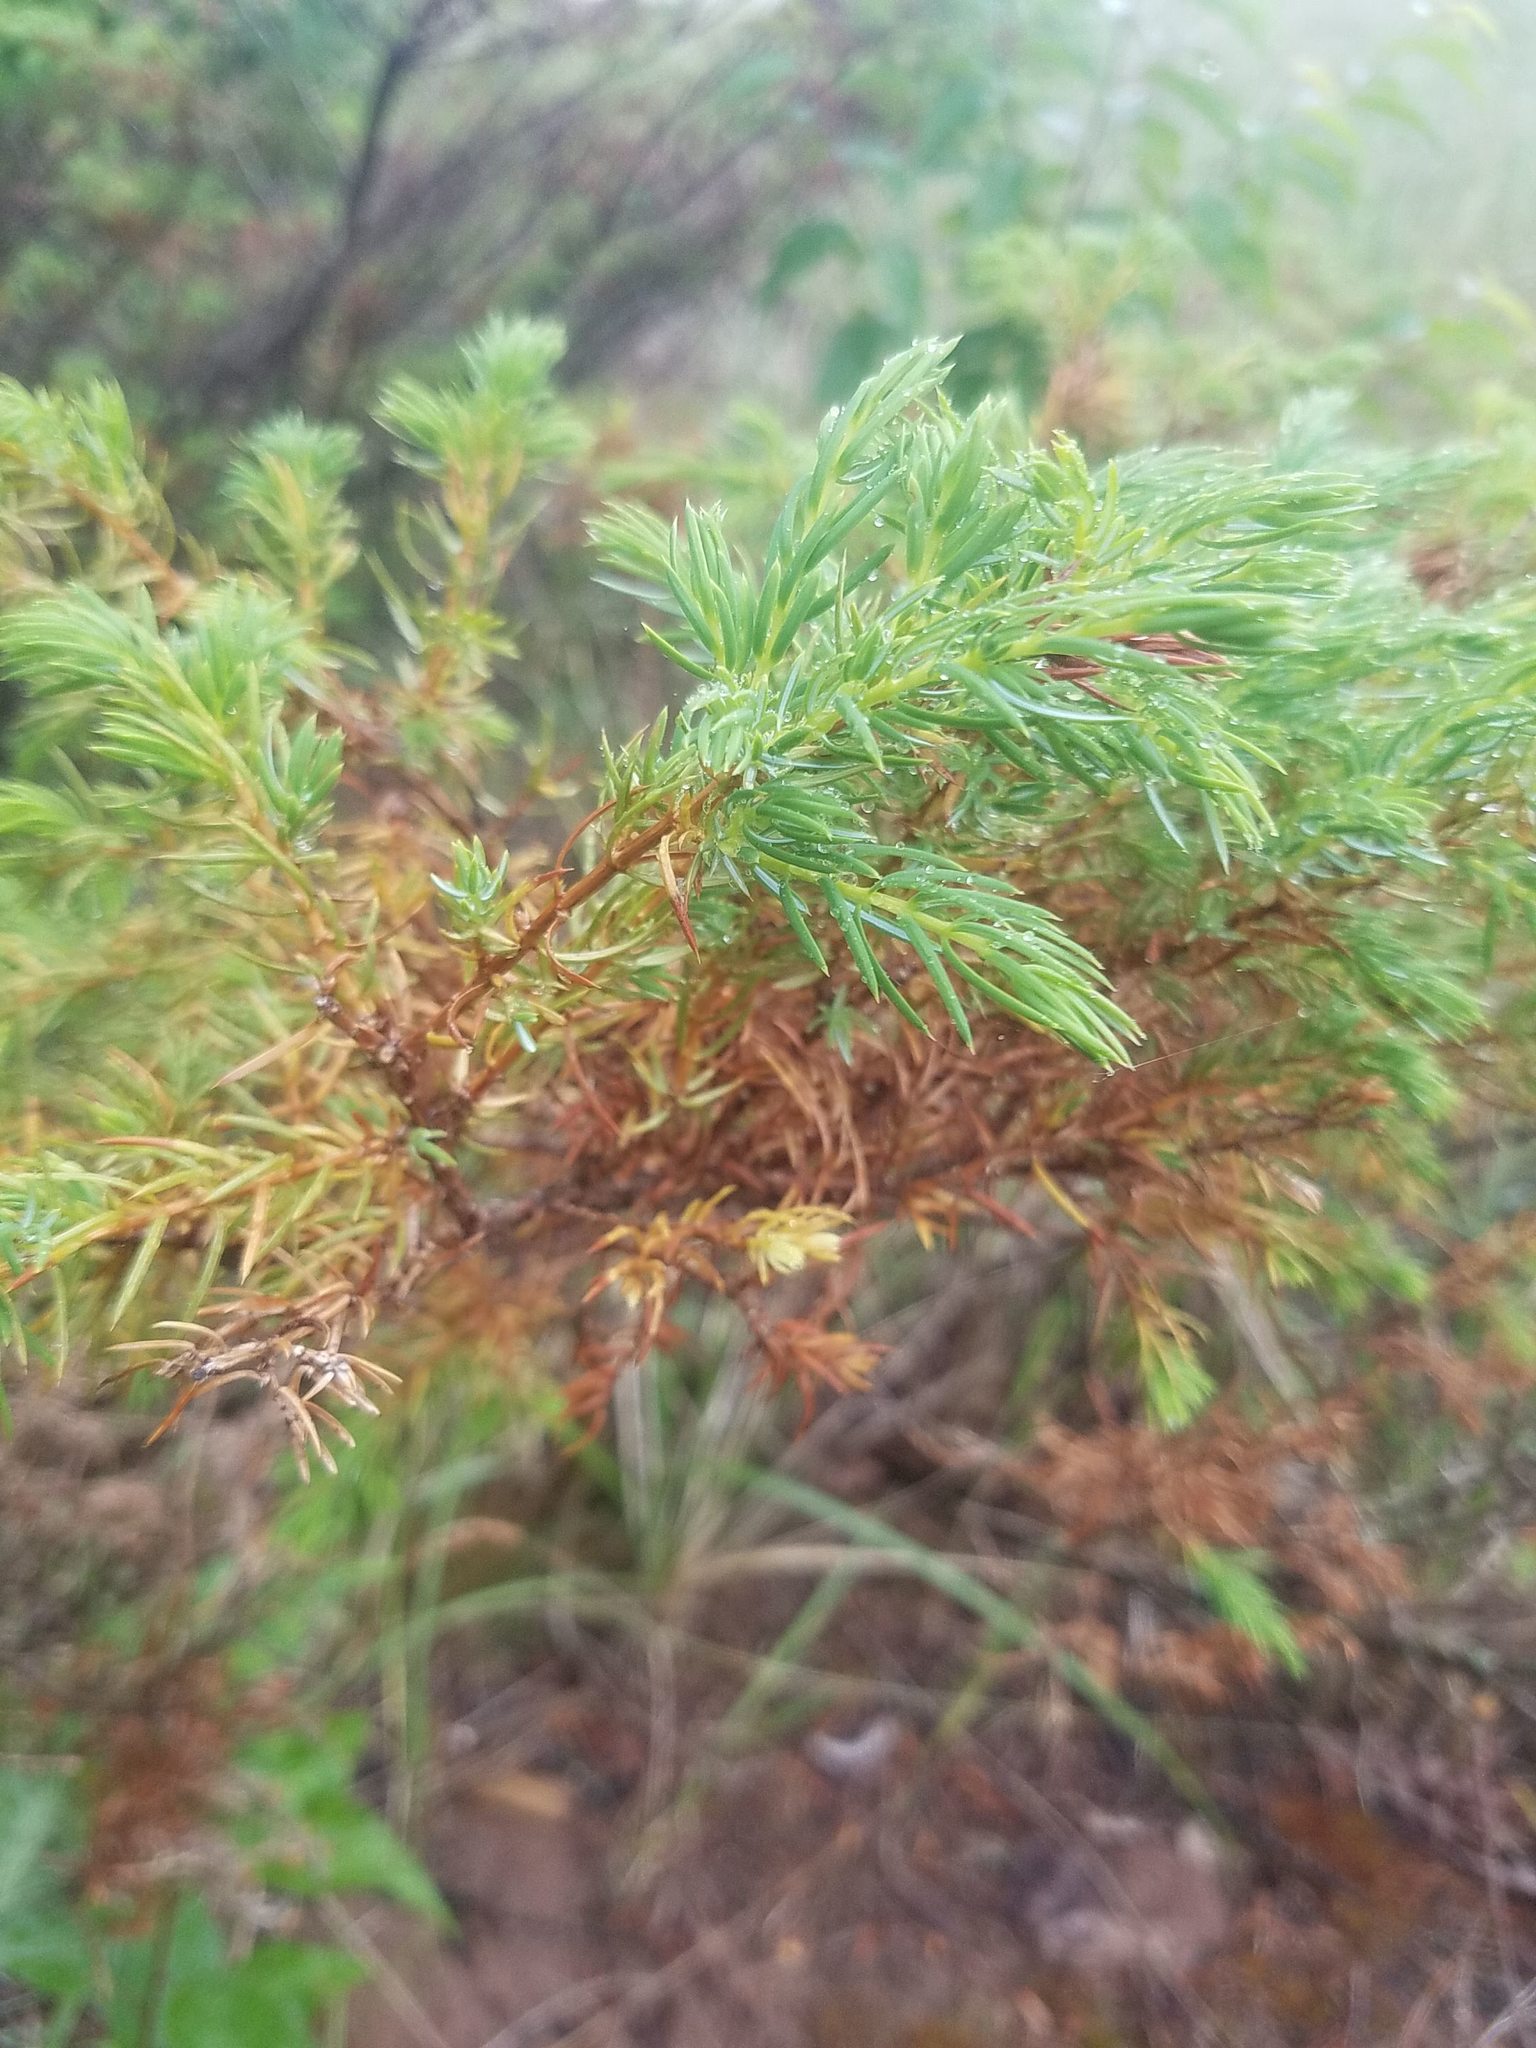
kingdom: Plantae
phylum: Tracheophyta
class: Pinopsida
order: Pinales
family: Cupressaceae
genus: Juniperus
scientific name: Juniperus communis
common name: Common juniper
